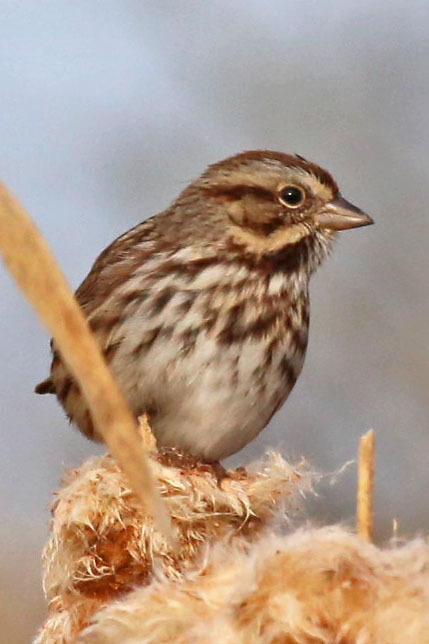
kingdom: Animalia
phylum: Chordata
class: Aves
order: Passeriformes
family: Passerellidae
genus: Melospiza
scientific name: Melospiza melodia
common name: Song sparrow
